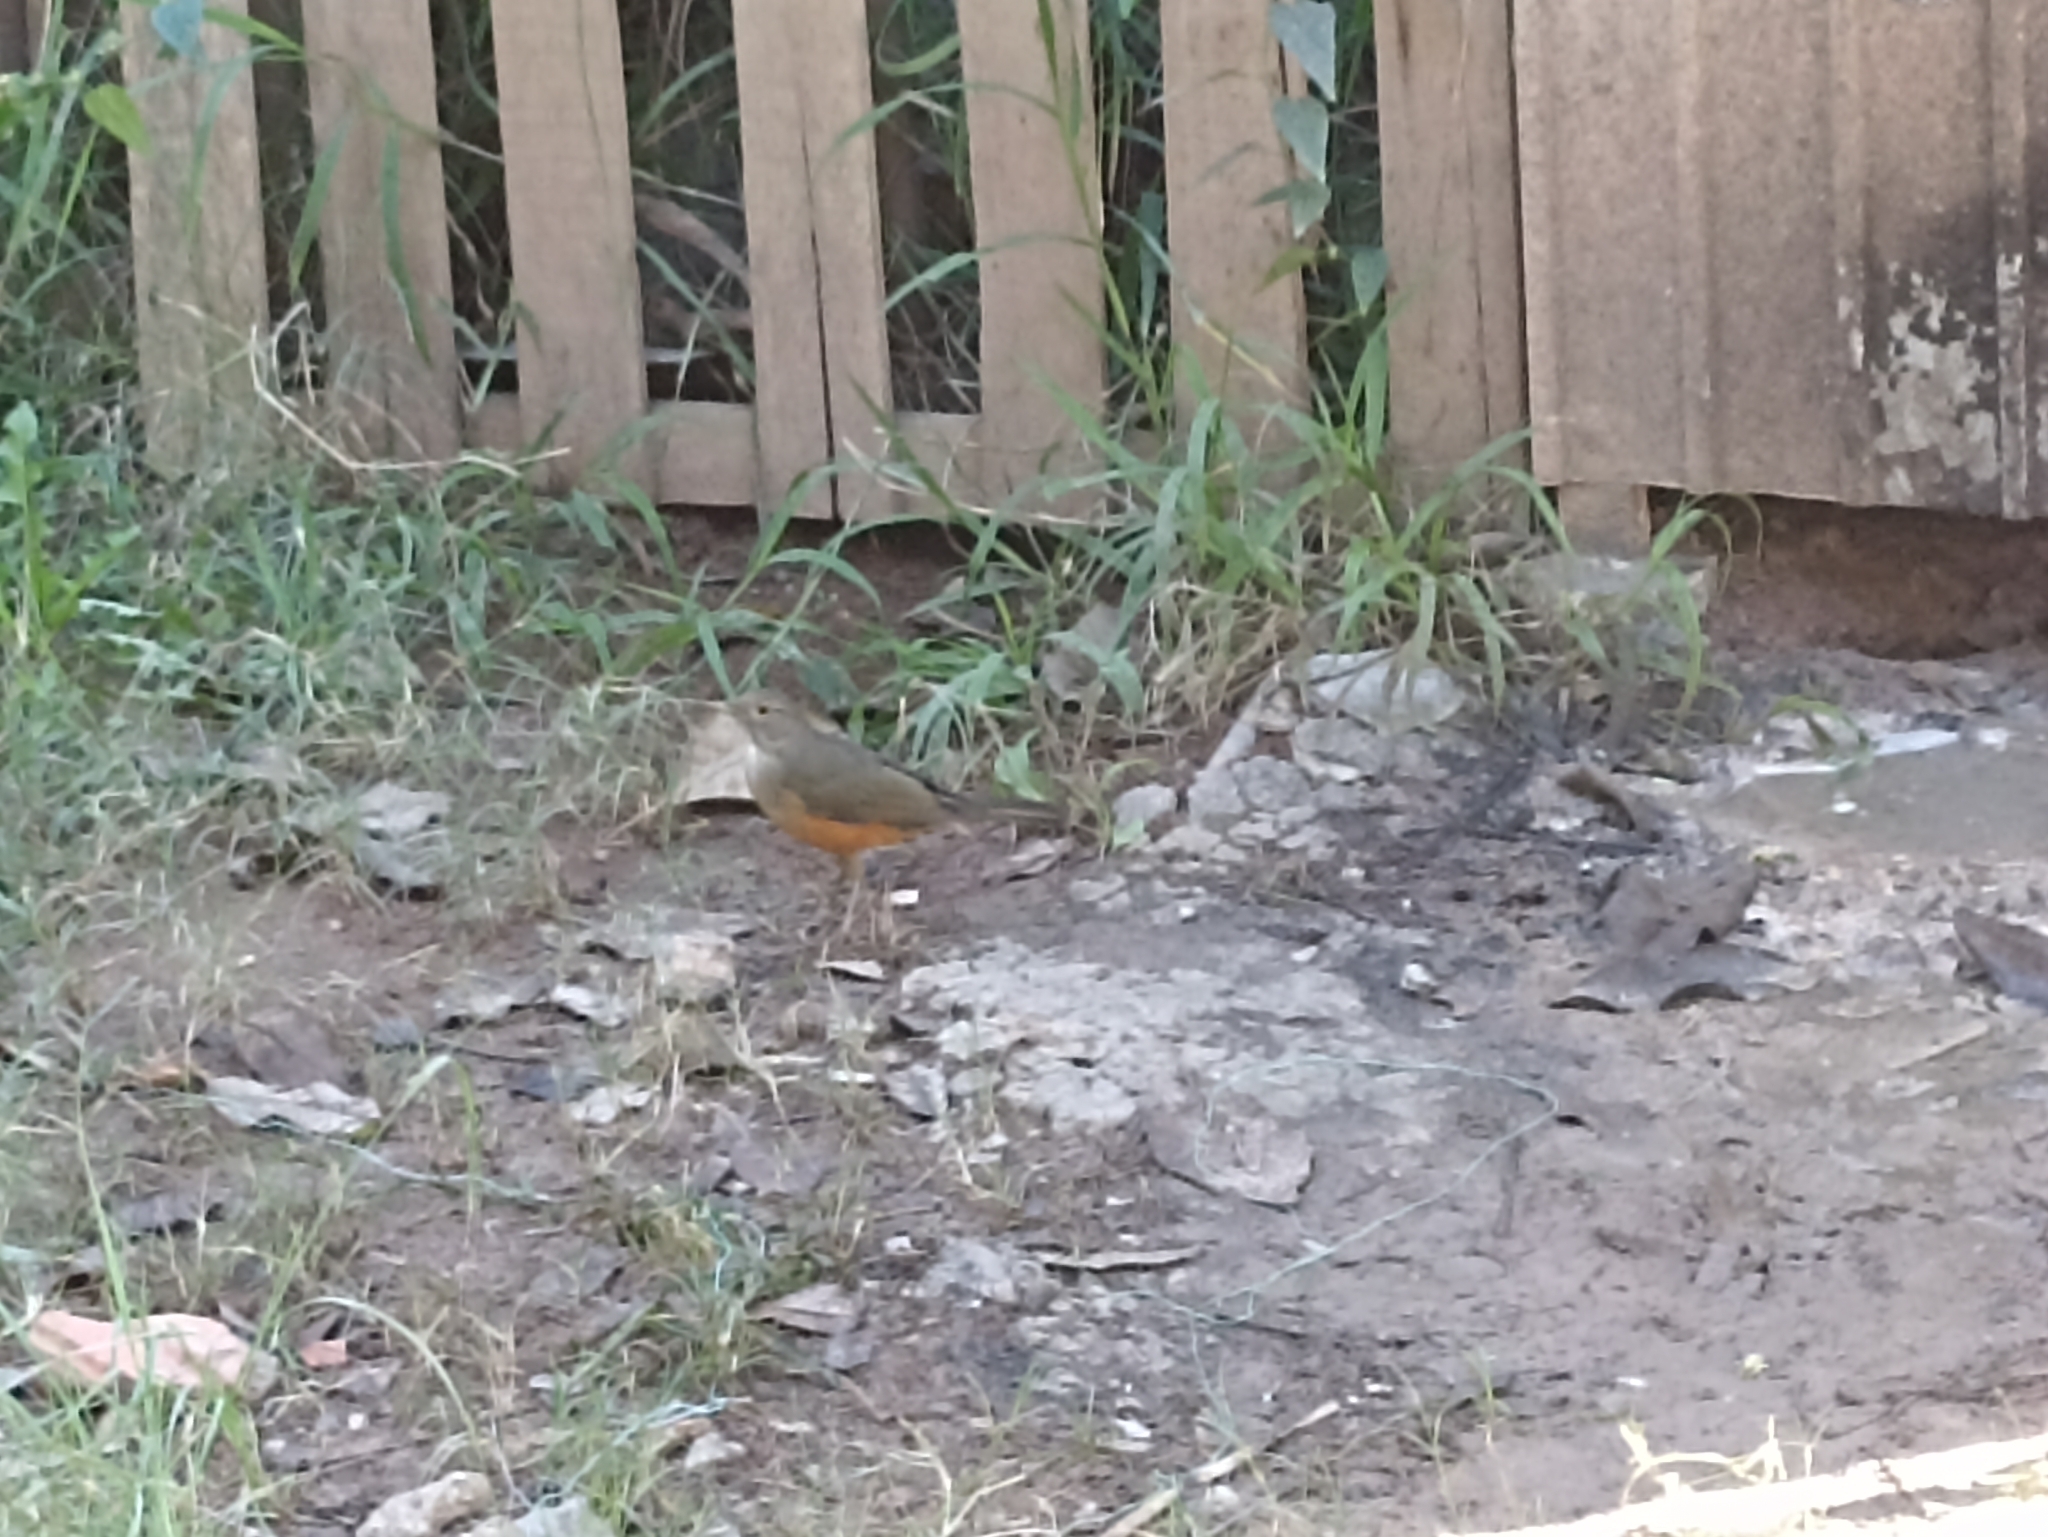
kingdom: Animalia
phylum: Chordata
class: Aves
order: Passeriformes
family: Turdidae
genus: Turdus
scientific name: Turdus rufiventris
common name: Rufous-bellied thrush
